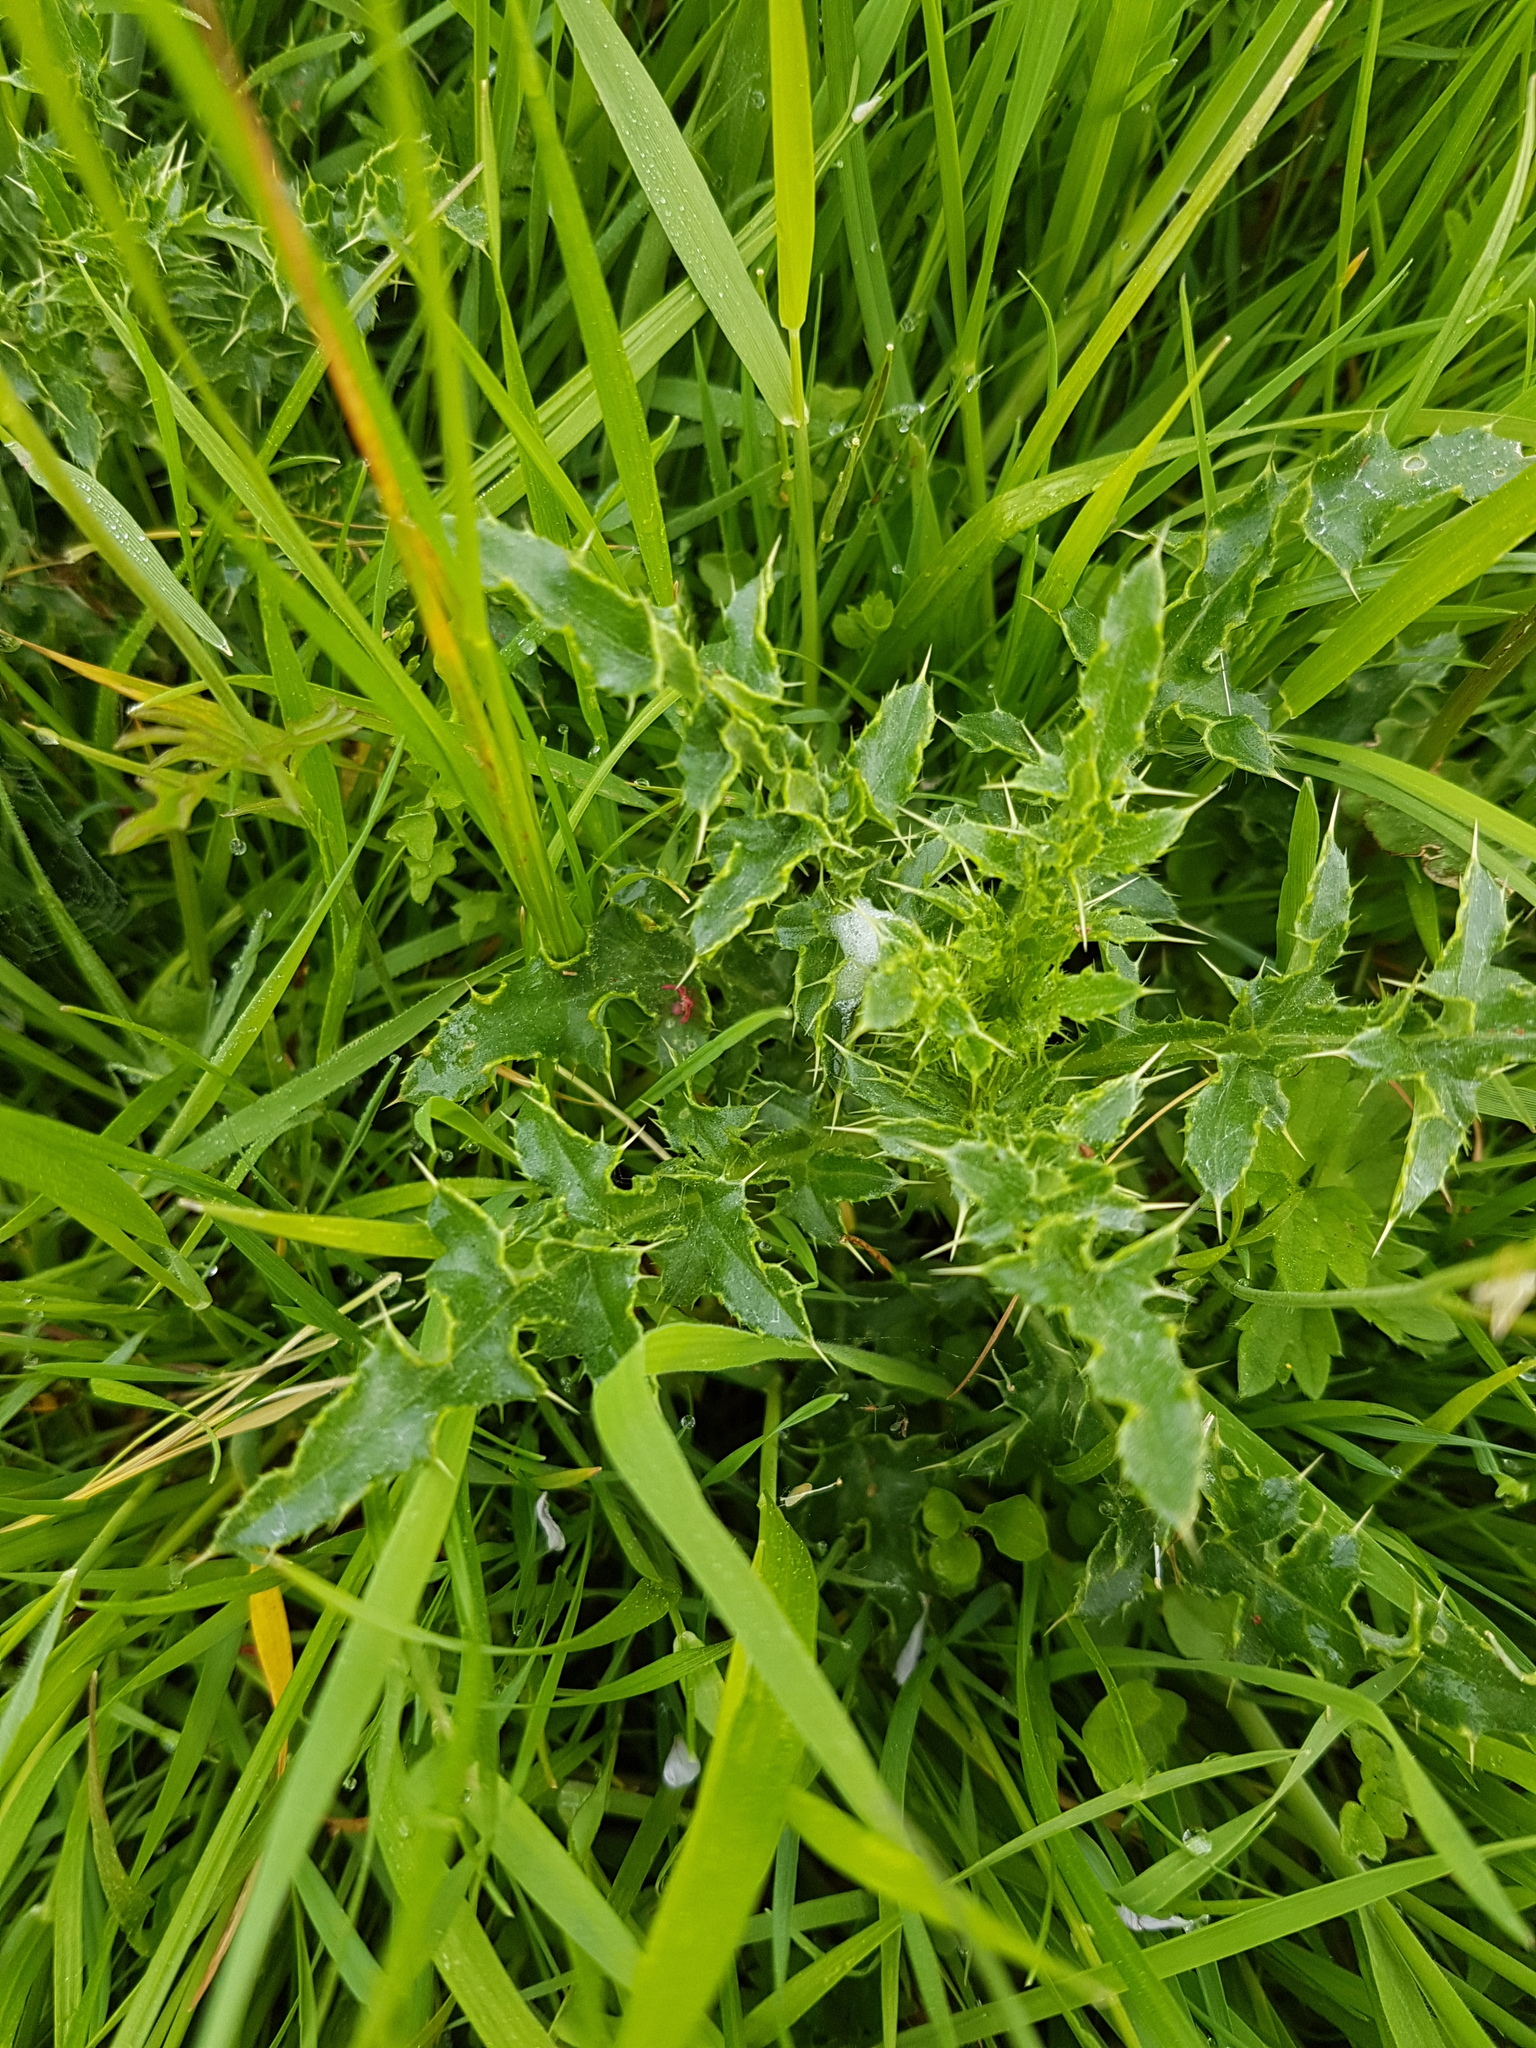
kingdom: Plantae
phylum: Tracheophyta
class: Magnoliopsida
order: Asterales
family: Asteraceae
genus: Cirsium
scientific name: Cirsium arvense
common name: Creeping thistle
